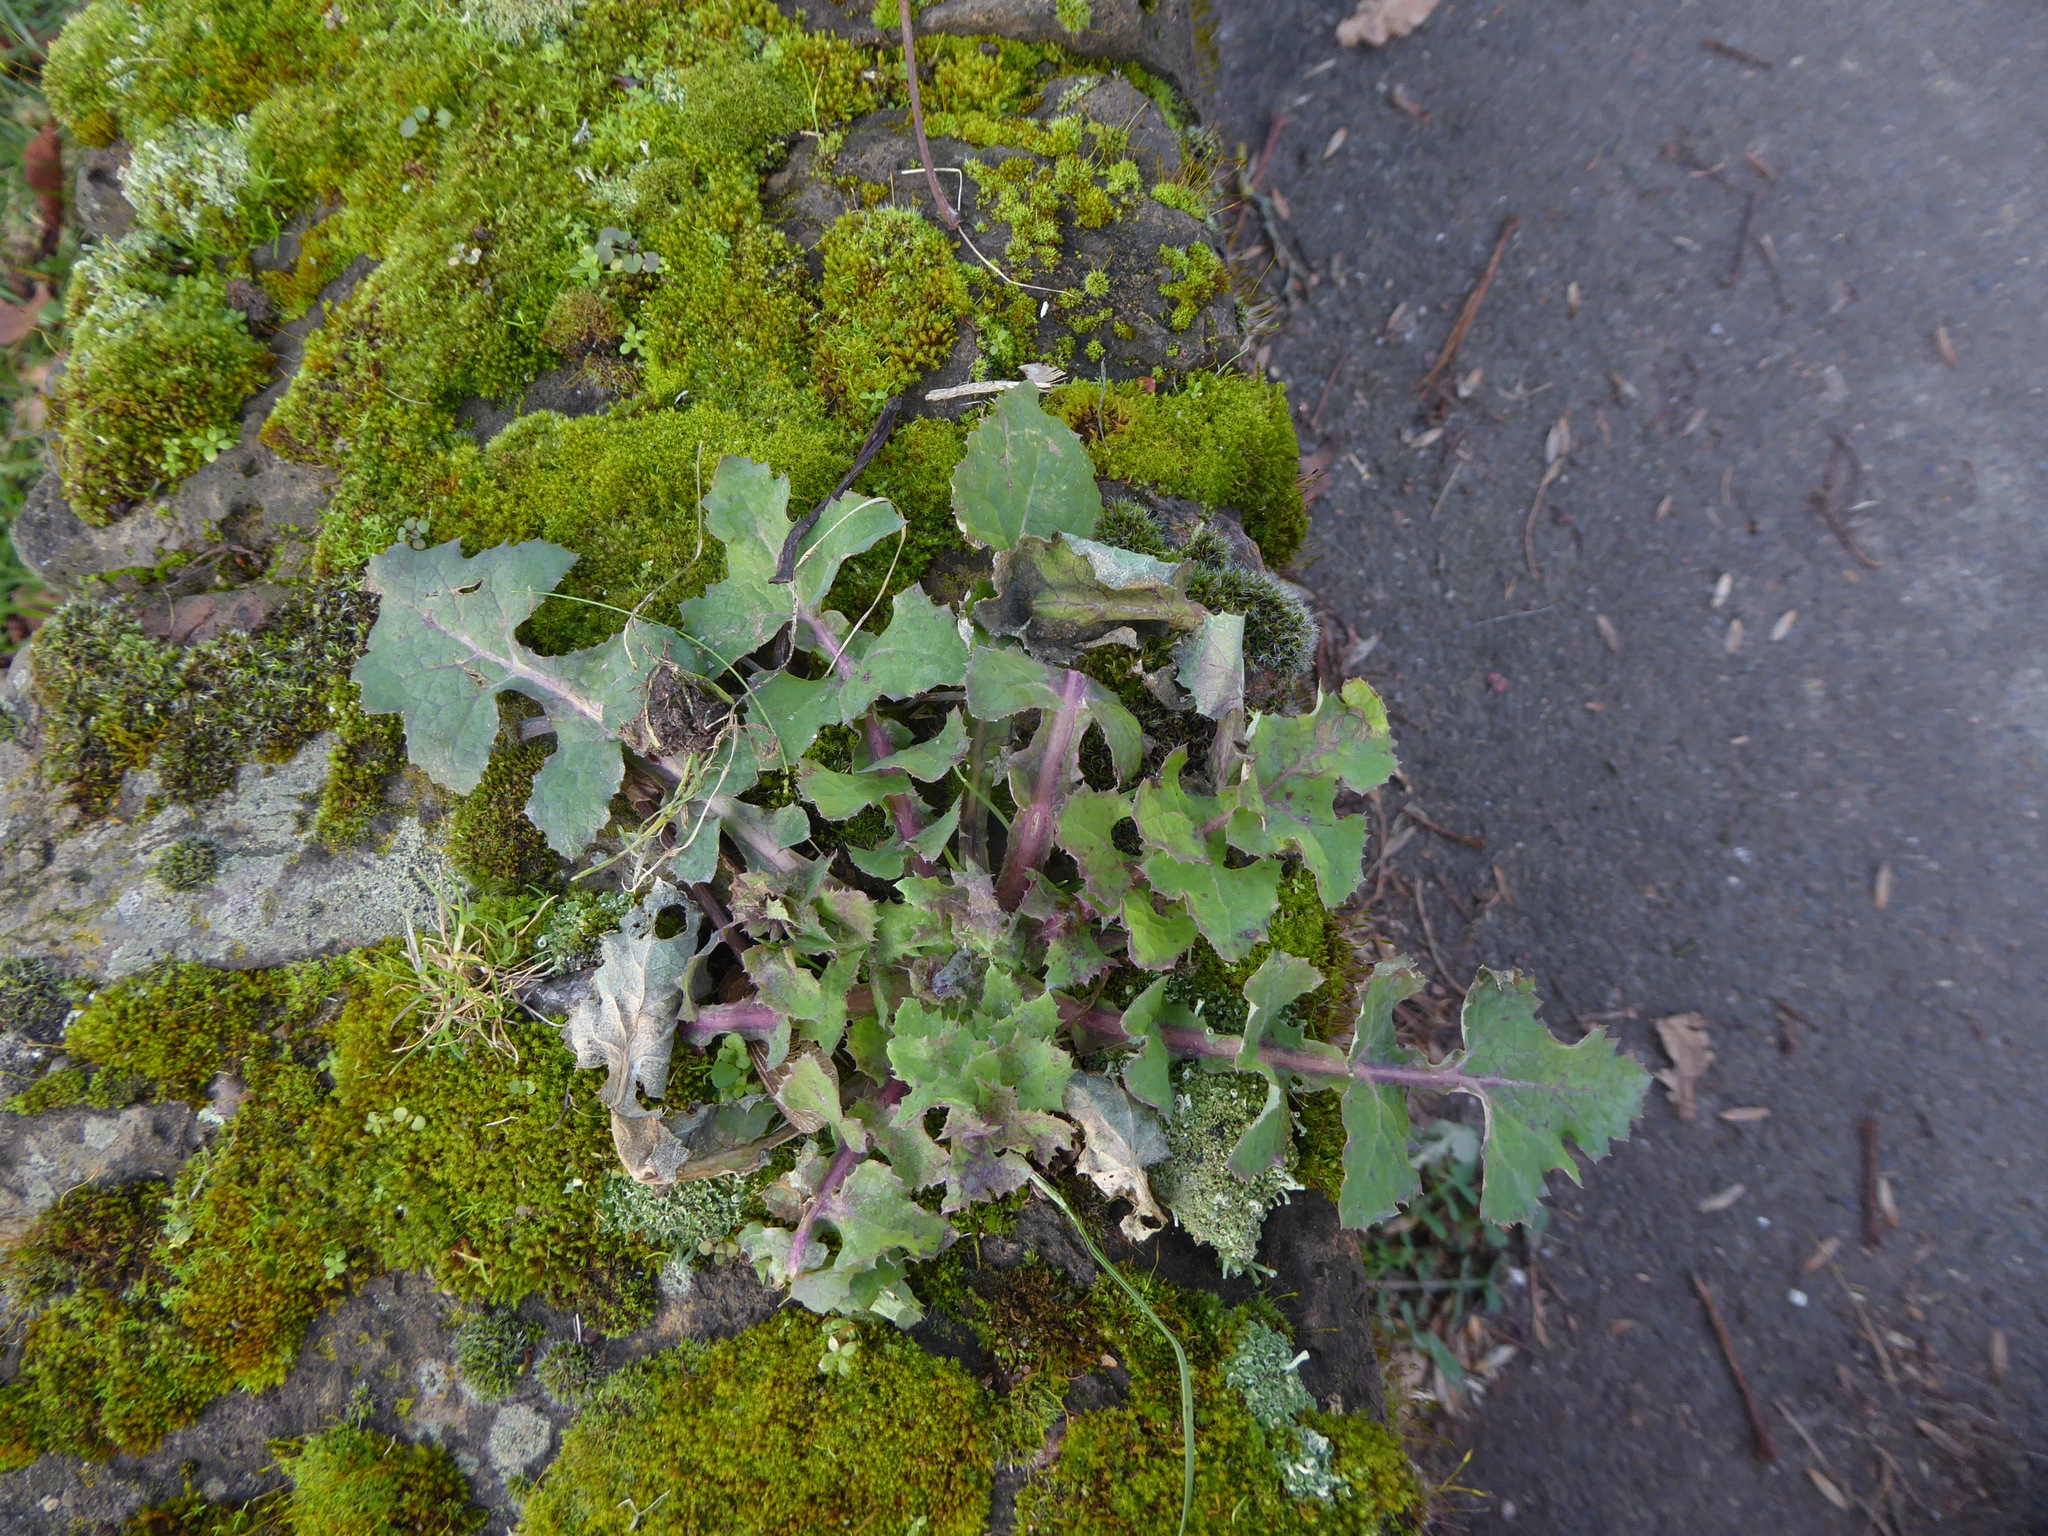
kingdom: Plantae
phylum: Tracheophyta
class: Magnoliopsida
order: Asterales
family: Asteraceae
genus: Sonchus
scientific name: Sonchus oleraceus
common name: Common sowthistle
